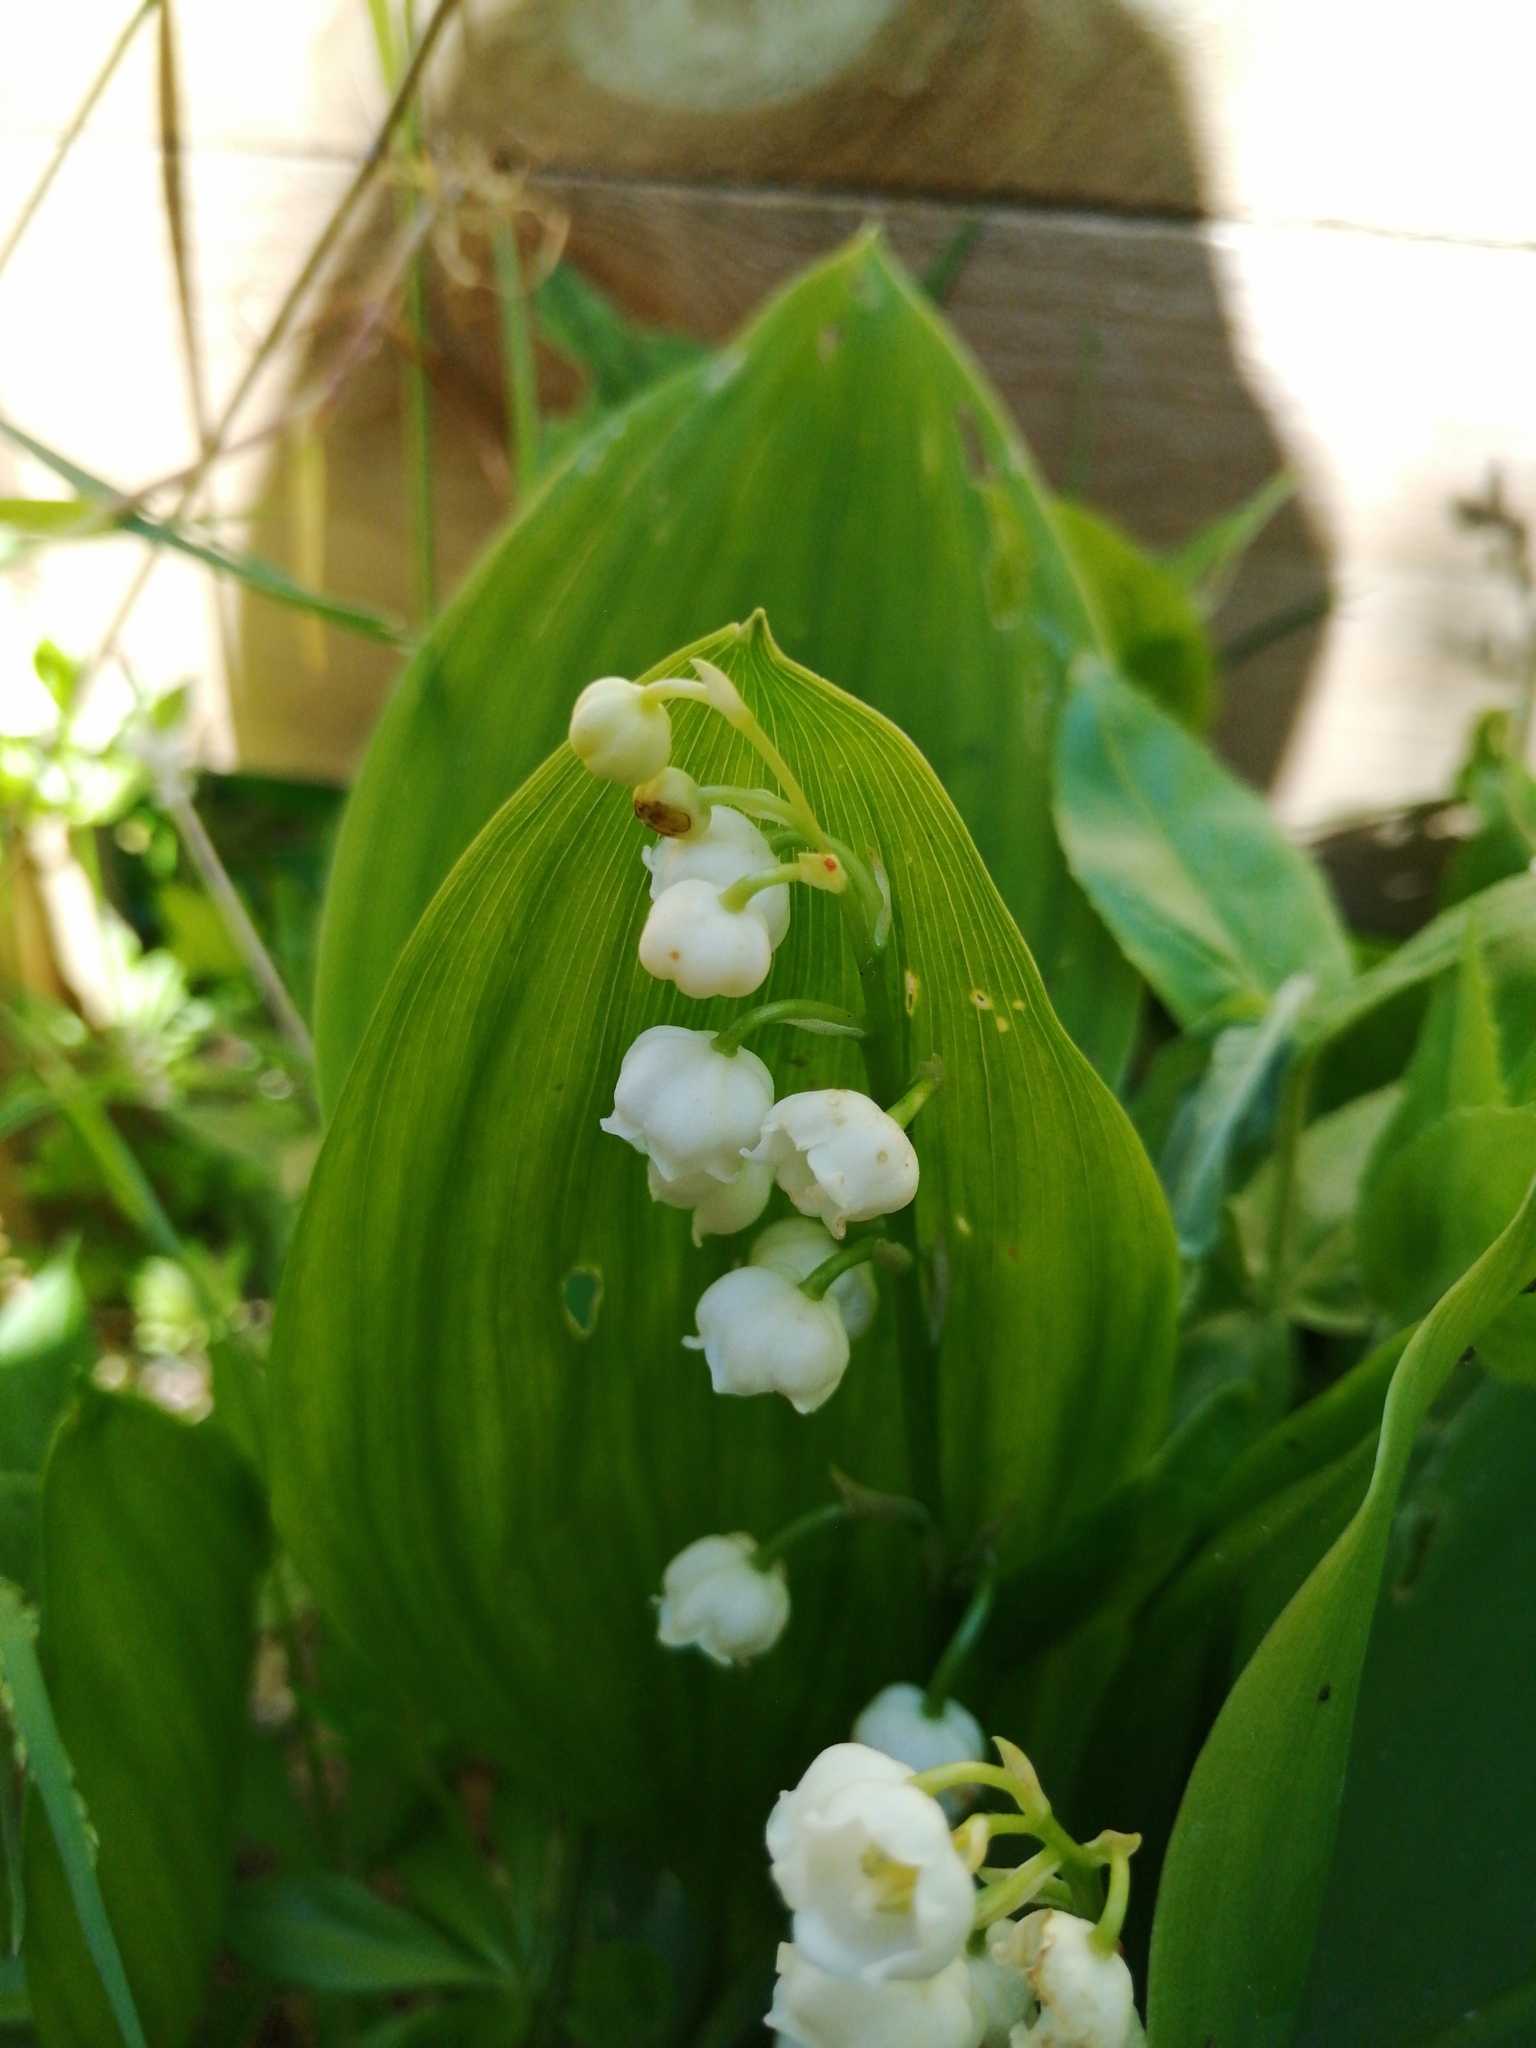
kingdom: Plantae
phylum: Tracheophyta
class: Liliopsida
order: Asparagales
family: Asparagaceae
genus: Convallaria
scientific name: Convallaria majalis
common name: Lily-of-the-valley
